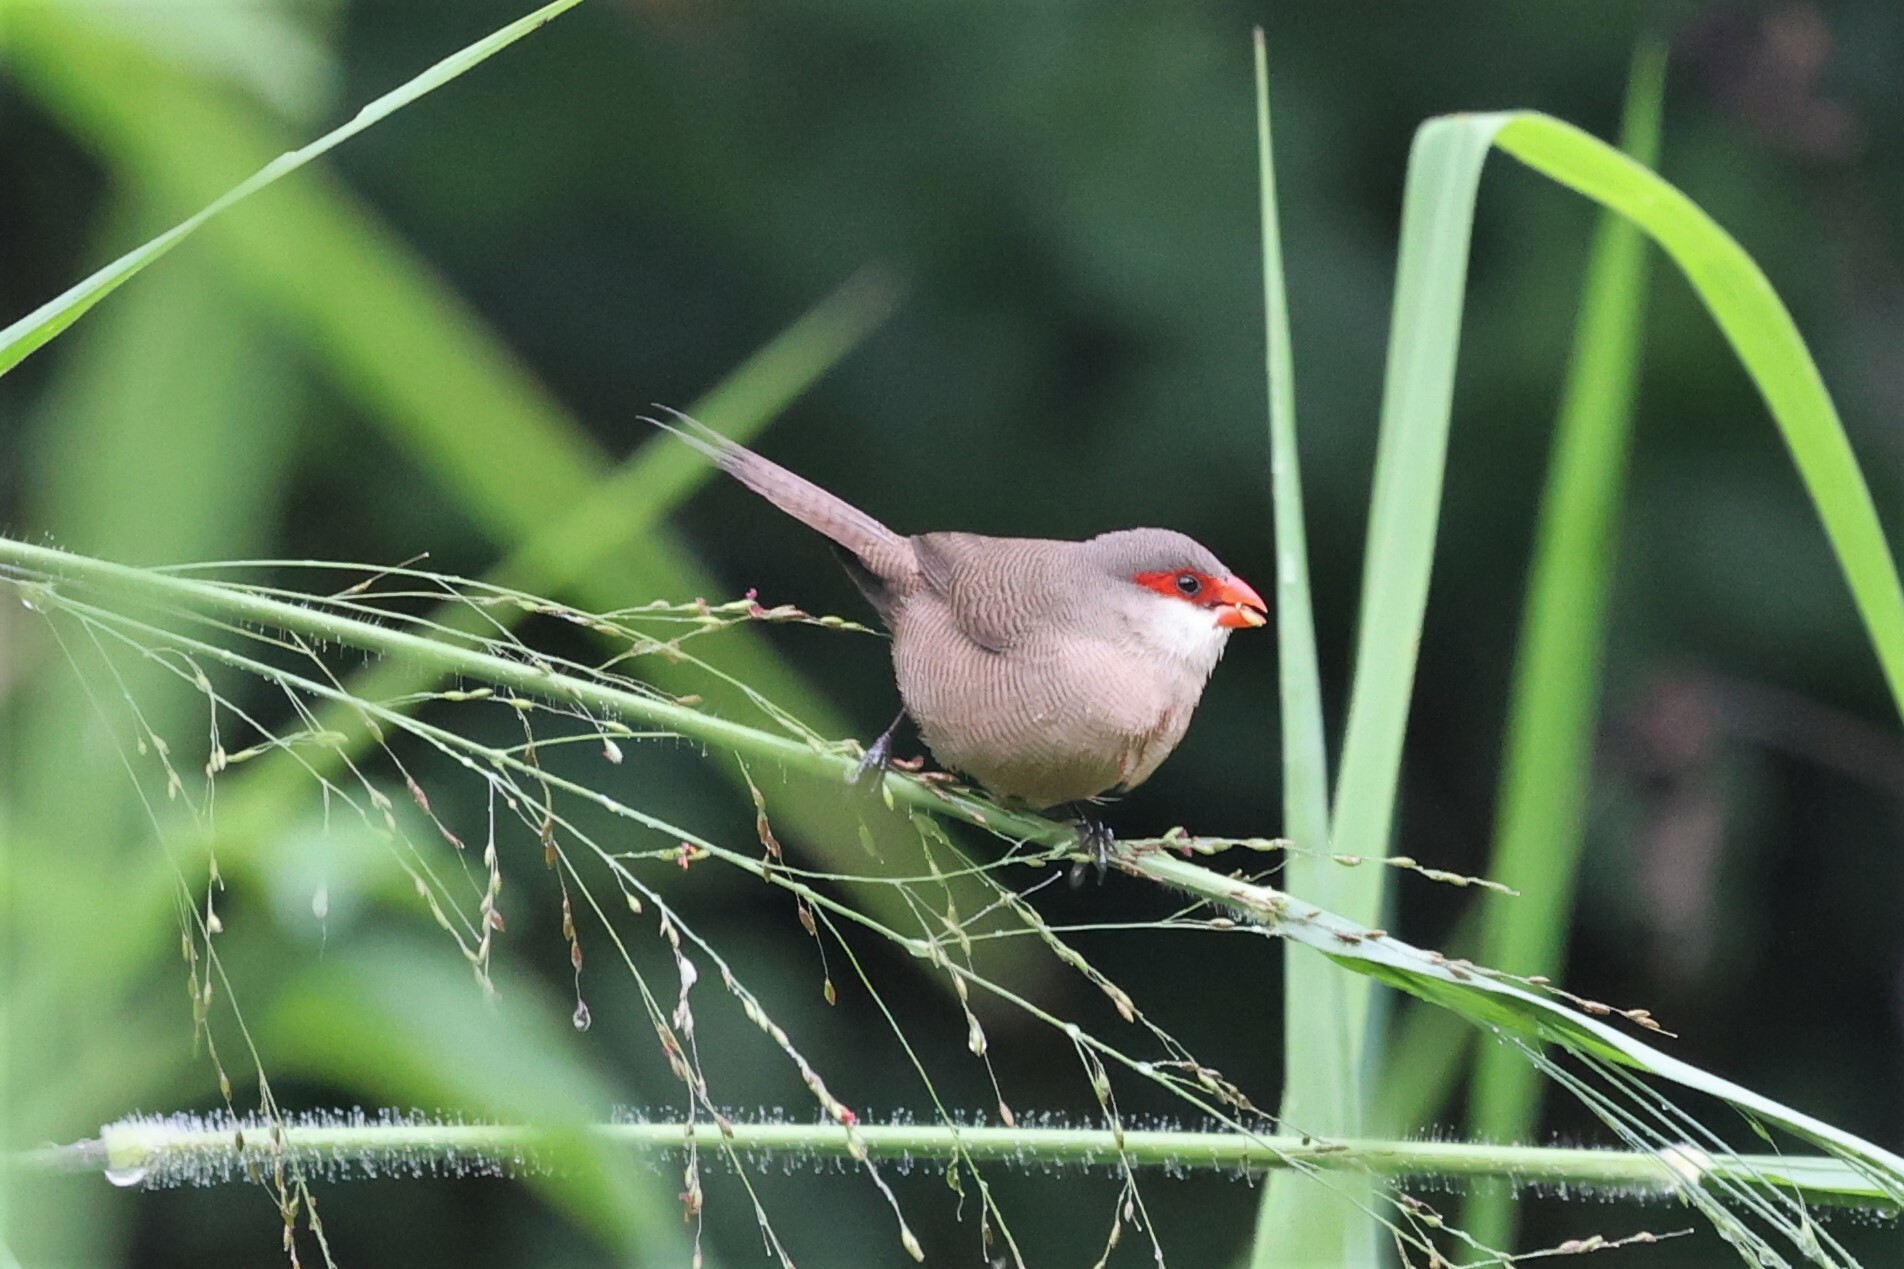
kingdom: Animalia
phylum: Chordata
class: Aves
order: Passeriformes
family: Estrildidae
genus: Estrilda
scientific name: Estrilda astrild
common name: Common waxbill
